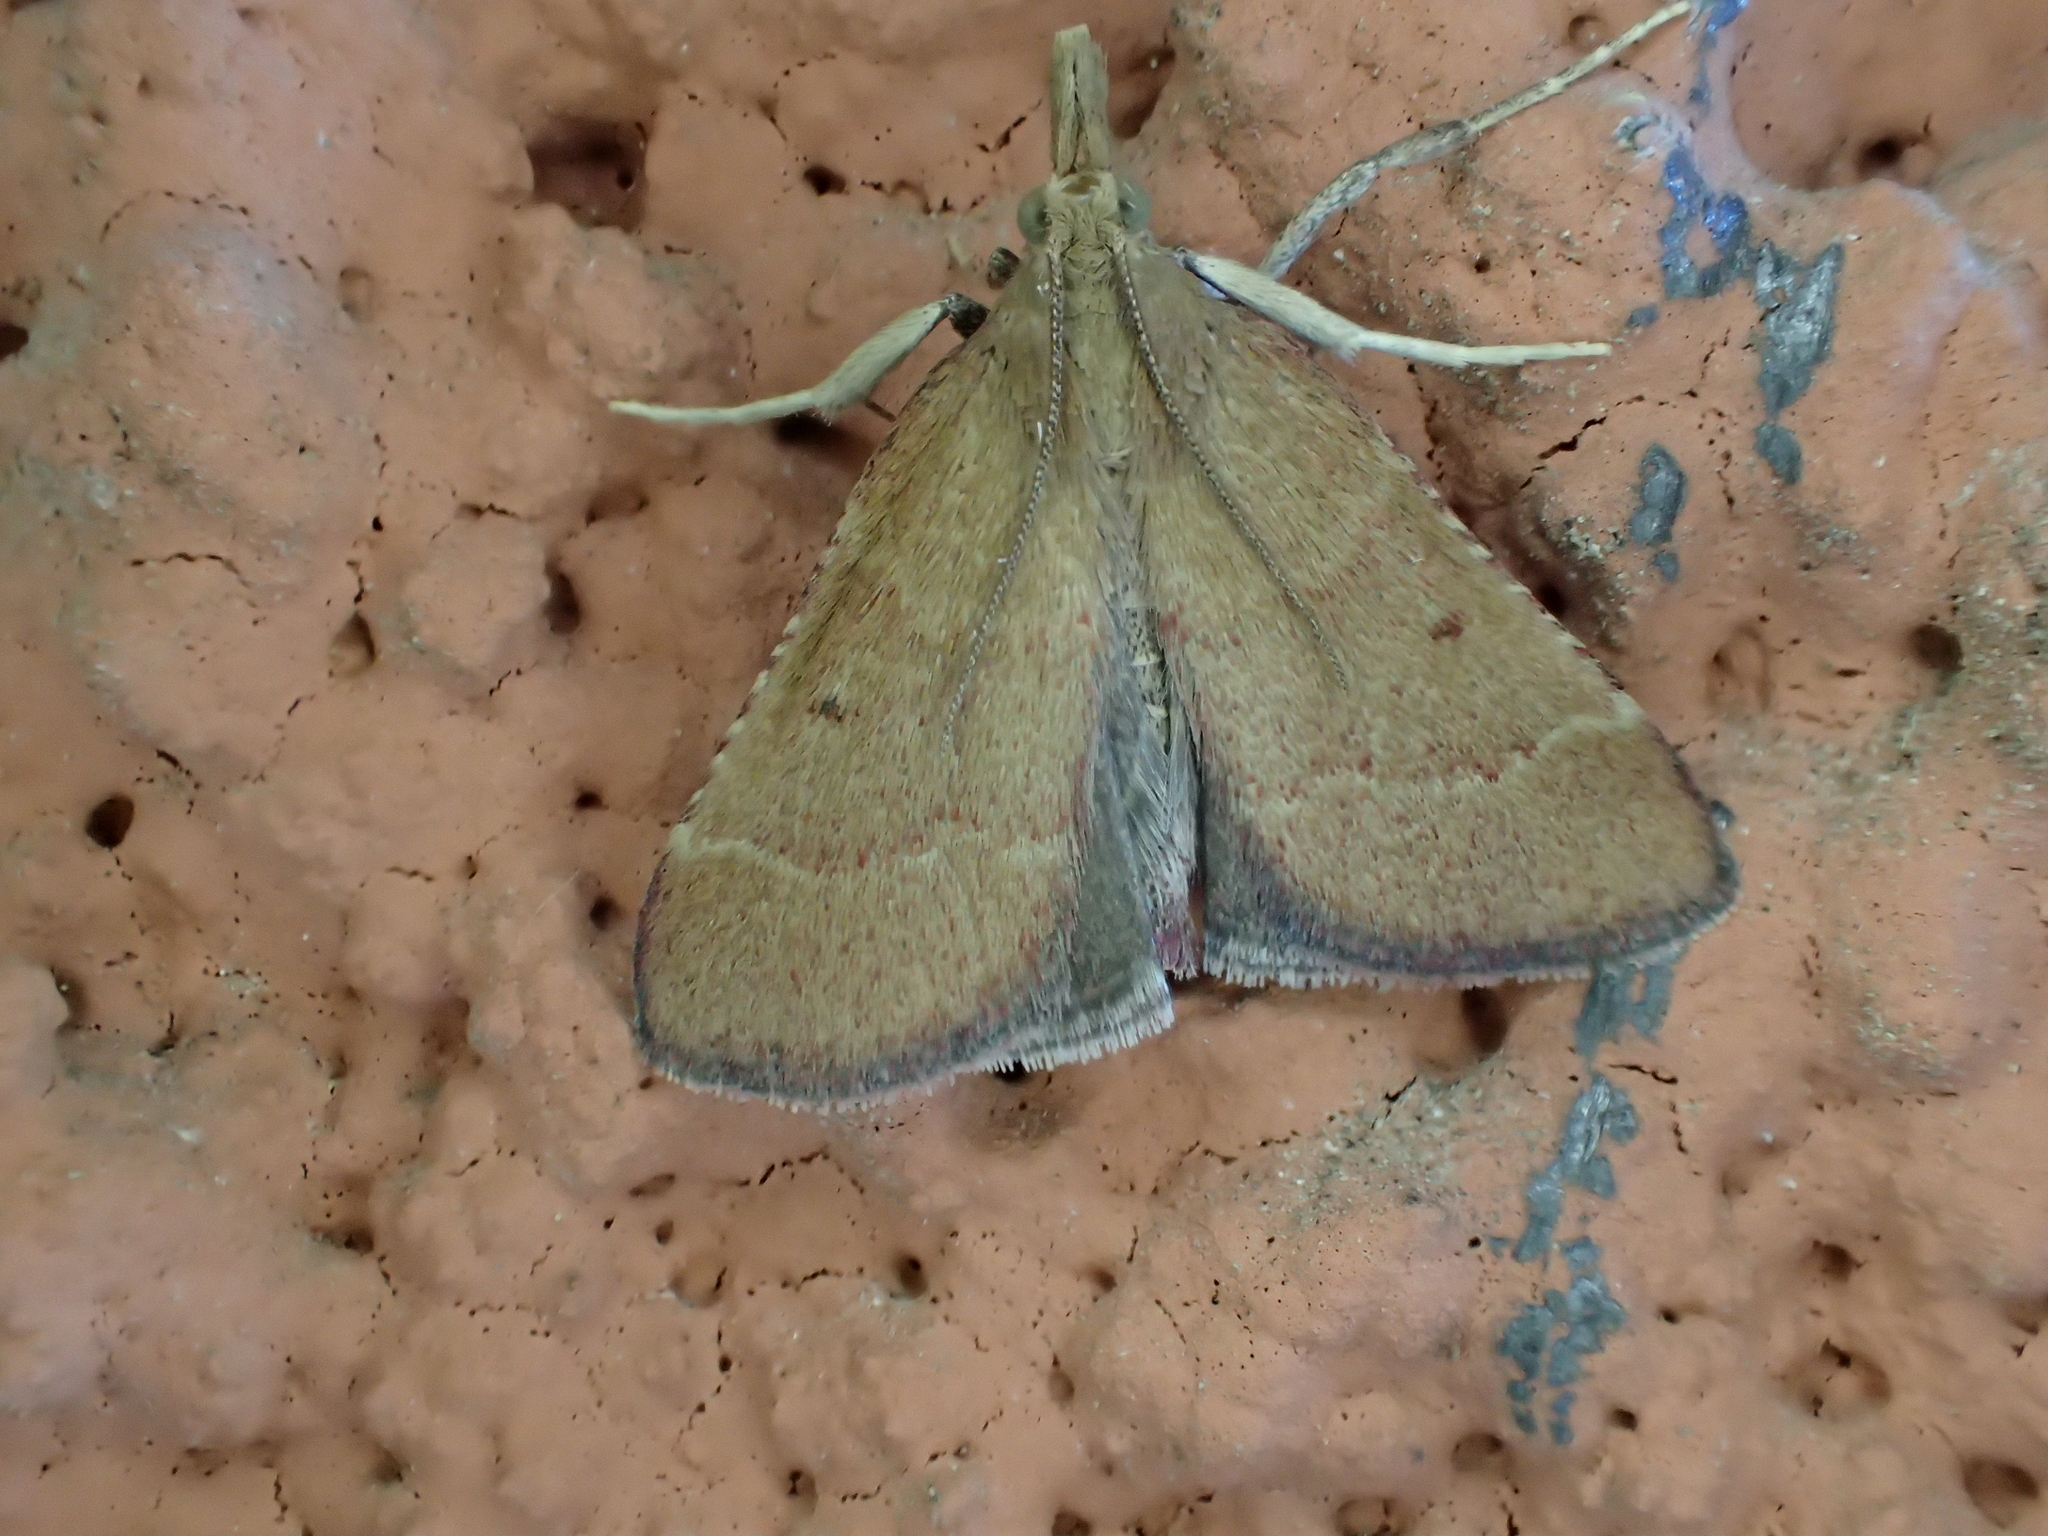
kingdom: Animalia
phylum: Arthropoda
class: Insecta
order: Lepidoptera
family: Pyralidae
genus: Stemmatophora
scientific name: Stemmatophora vulpecalis
